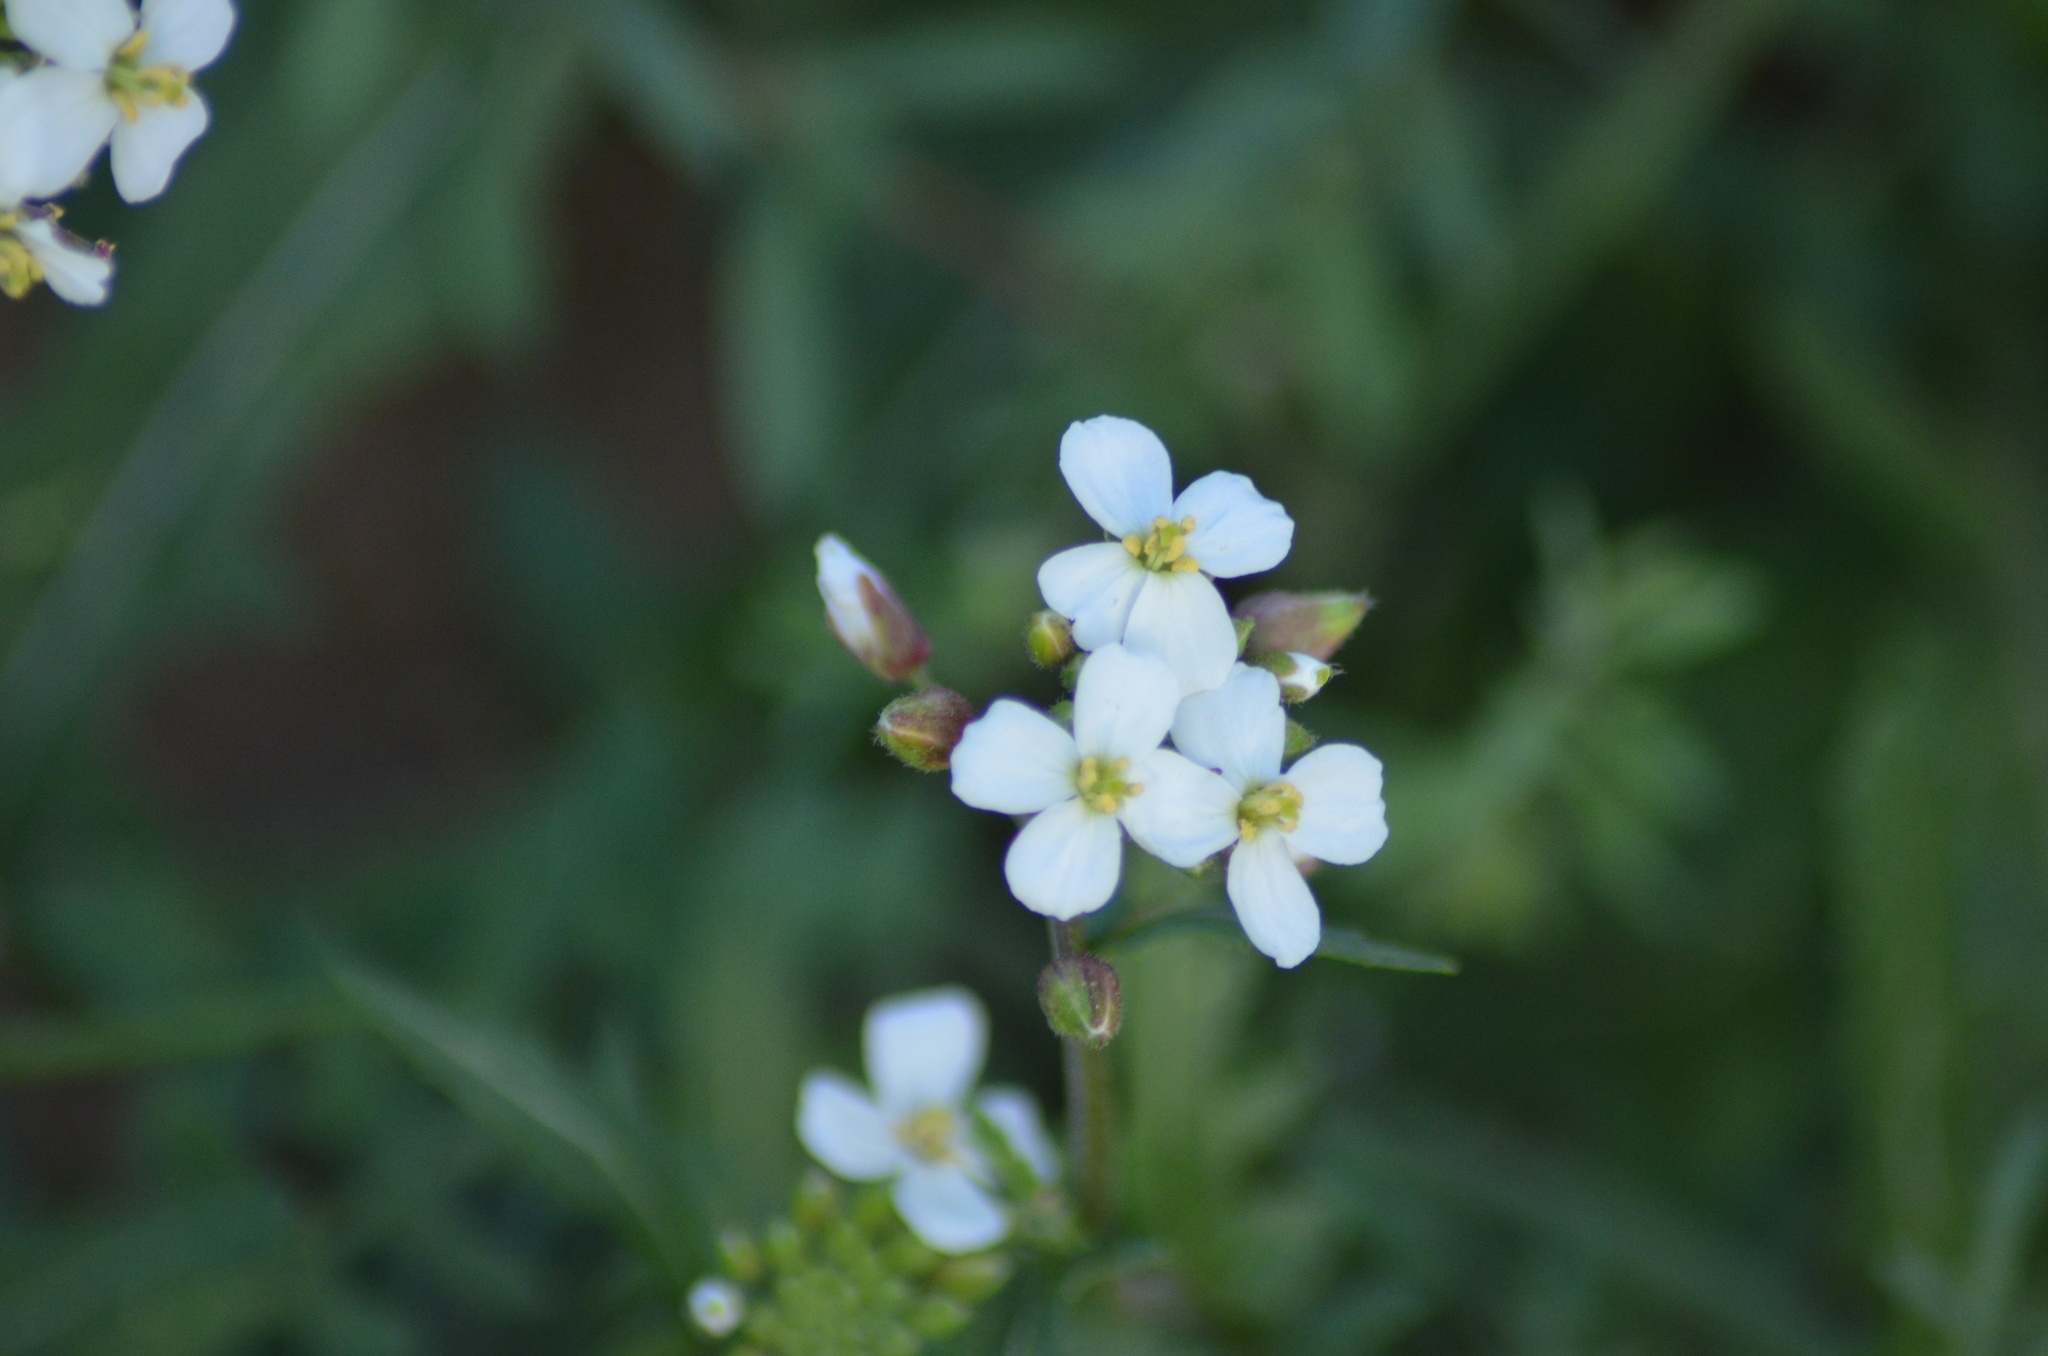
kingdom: Plantae
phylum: Tracheophyta
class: Magnoliopsida
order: Brassicales
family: Brassicaceae
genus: Diplotaxis
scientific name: Diplotaxis erucoides
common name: White rocket
